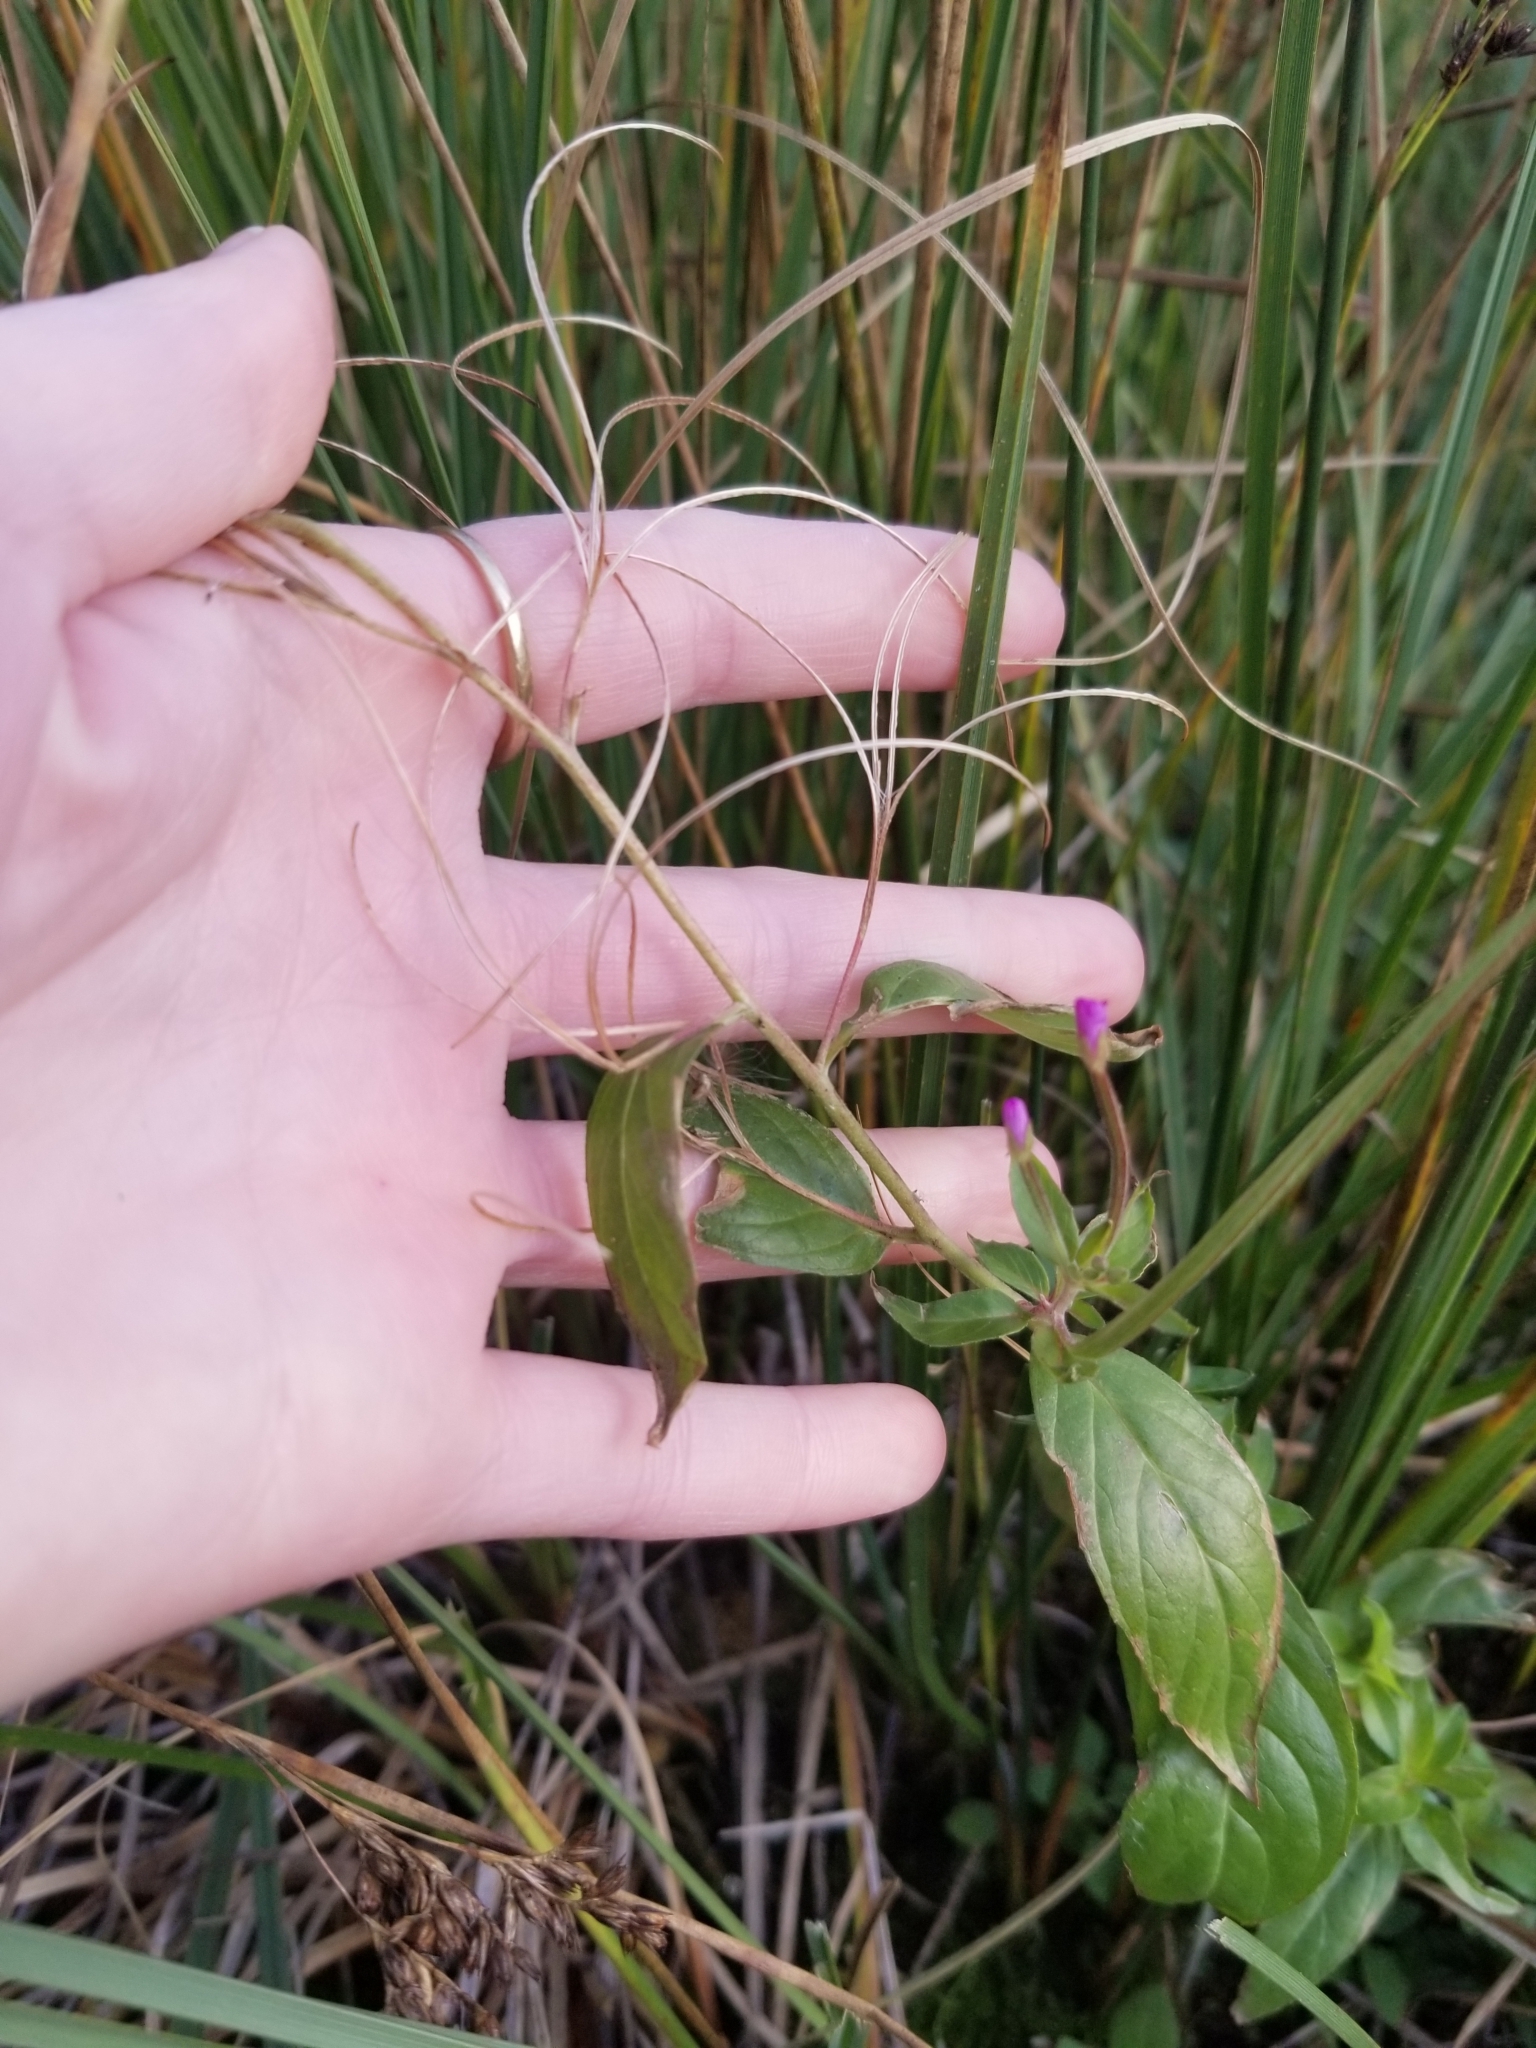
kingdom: Plantae
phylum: Tracheophyta
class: Magnoliopsida
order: Myrtales
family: Onagraceae
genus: Epilobium
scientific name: Epilobium ciliatum
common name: American willowherb
